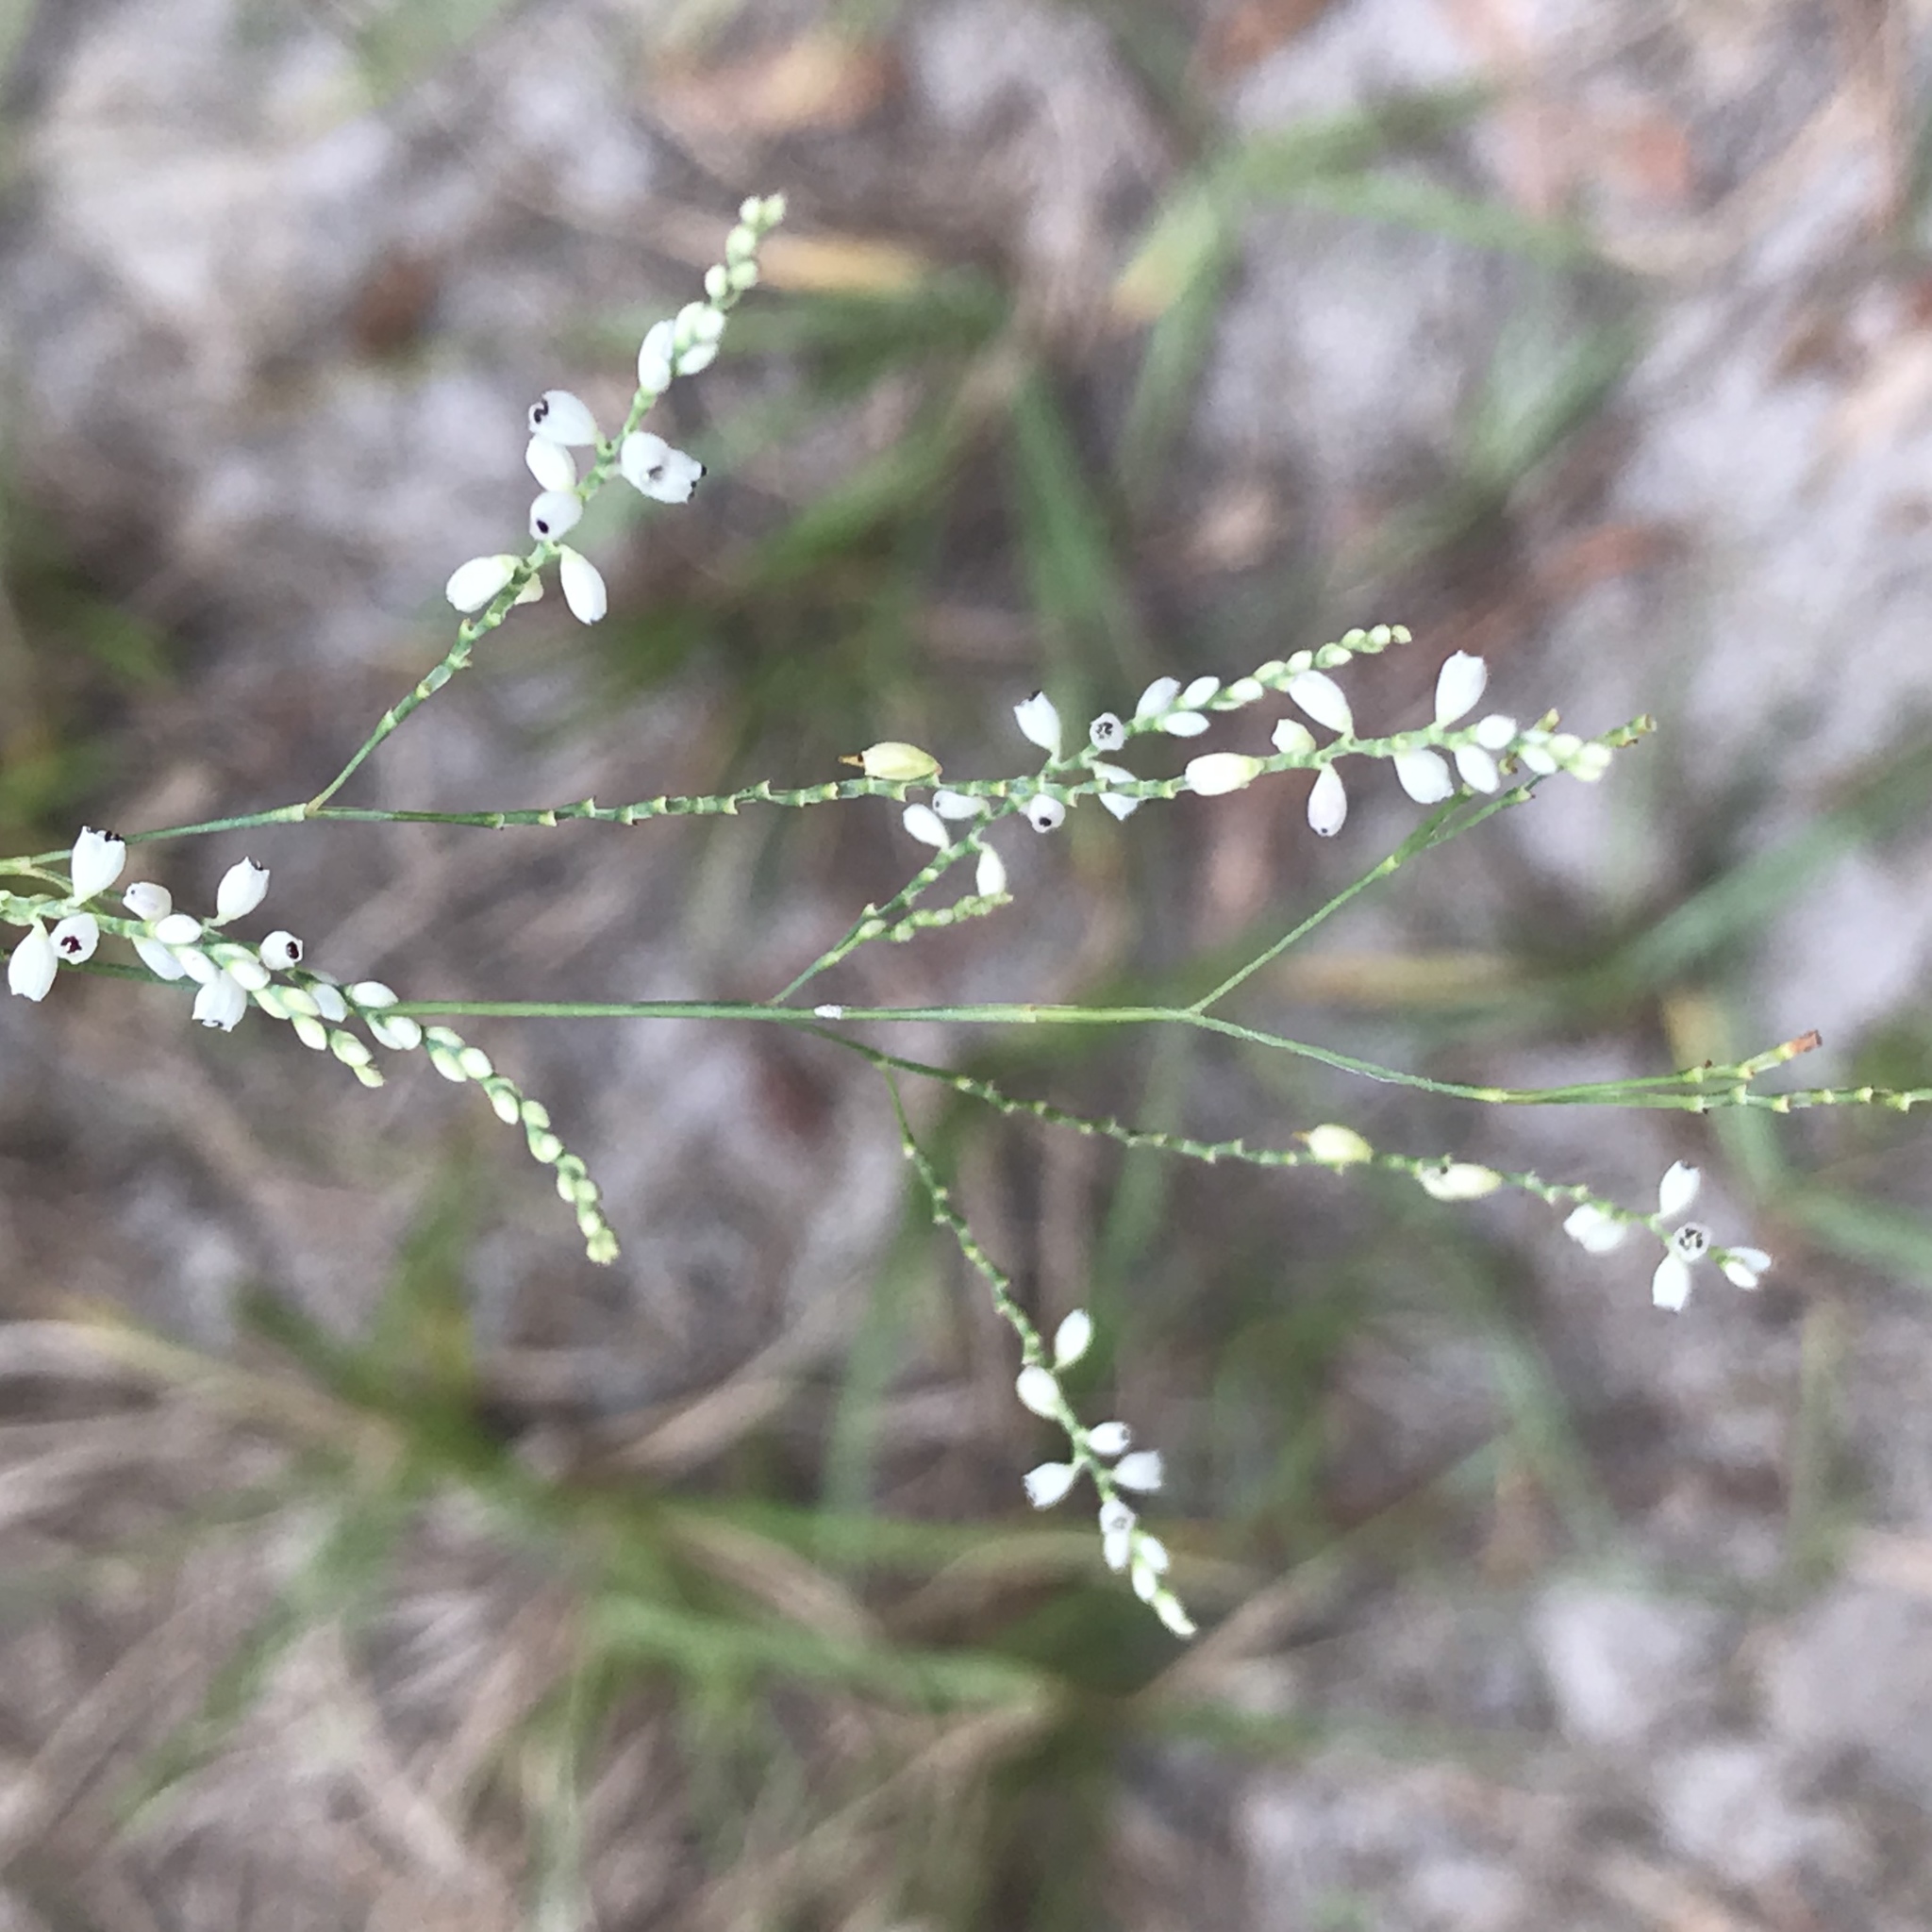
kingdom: Plantae
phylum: Tracheophyta
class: Magnoliopsida
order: Caryophyllales
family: Polygonaceae
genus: Polygonella
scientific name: Polygonella gracilis
